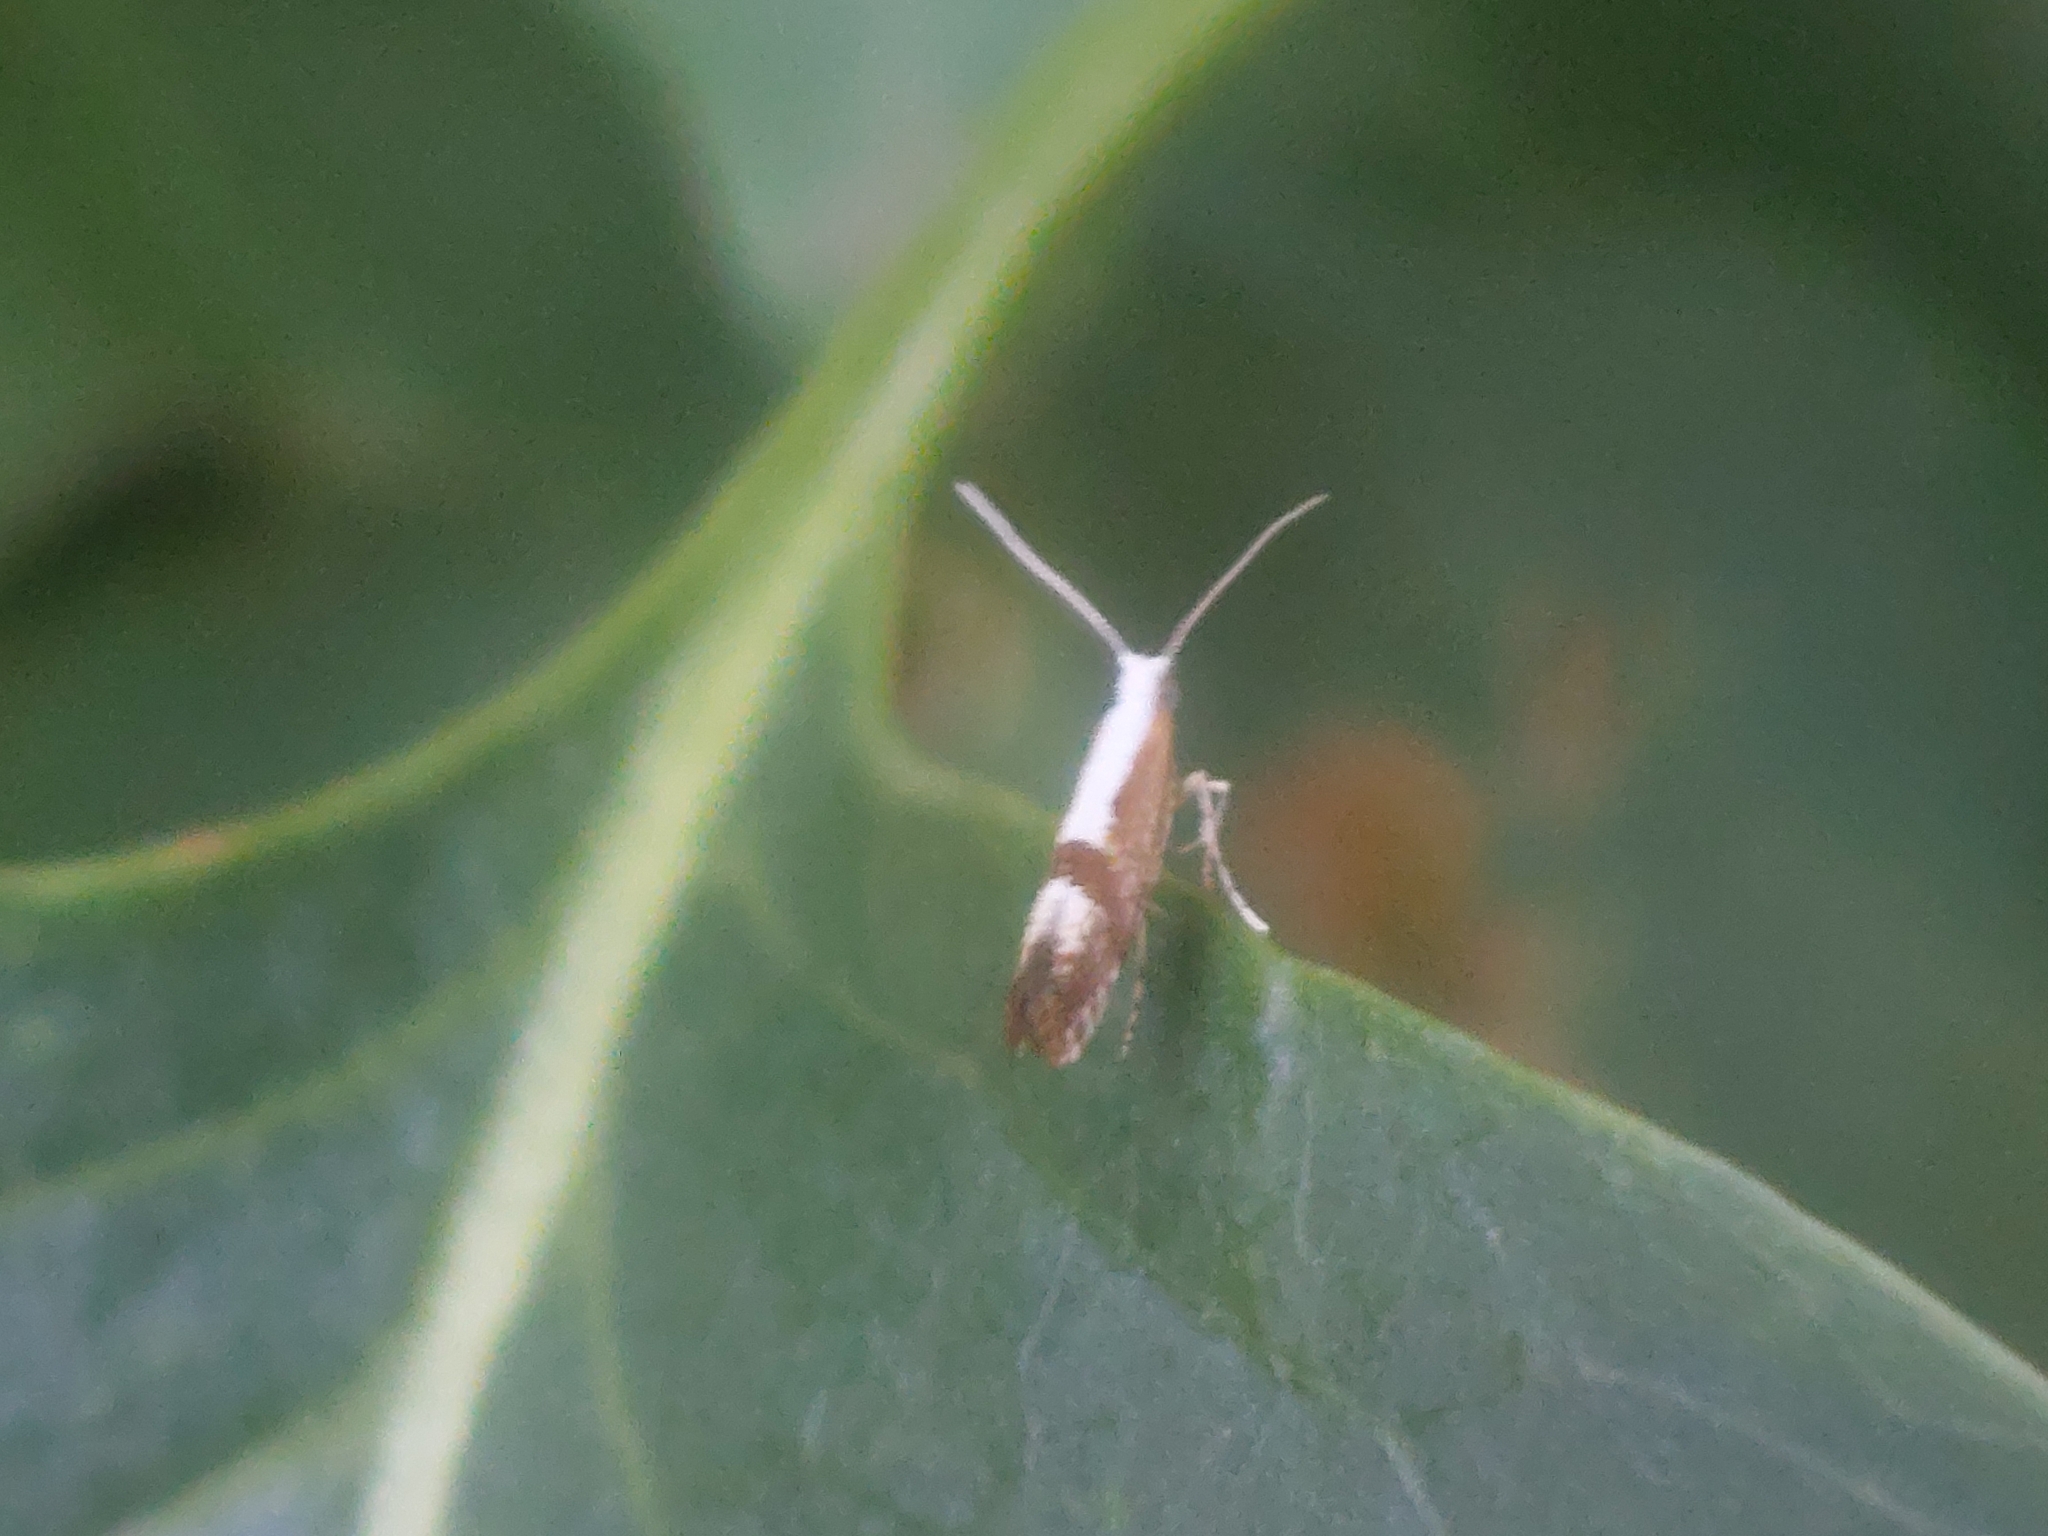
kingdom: Animalia
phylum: Arthropoda
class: Insecta
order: Lepidoptera
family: Argyresthiidae
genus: Argyresthia
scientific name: Argyresthia pruniella
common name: Cherry fruit moth
